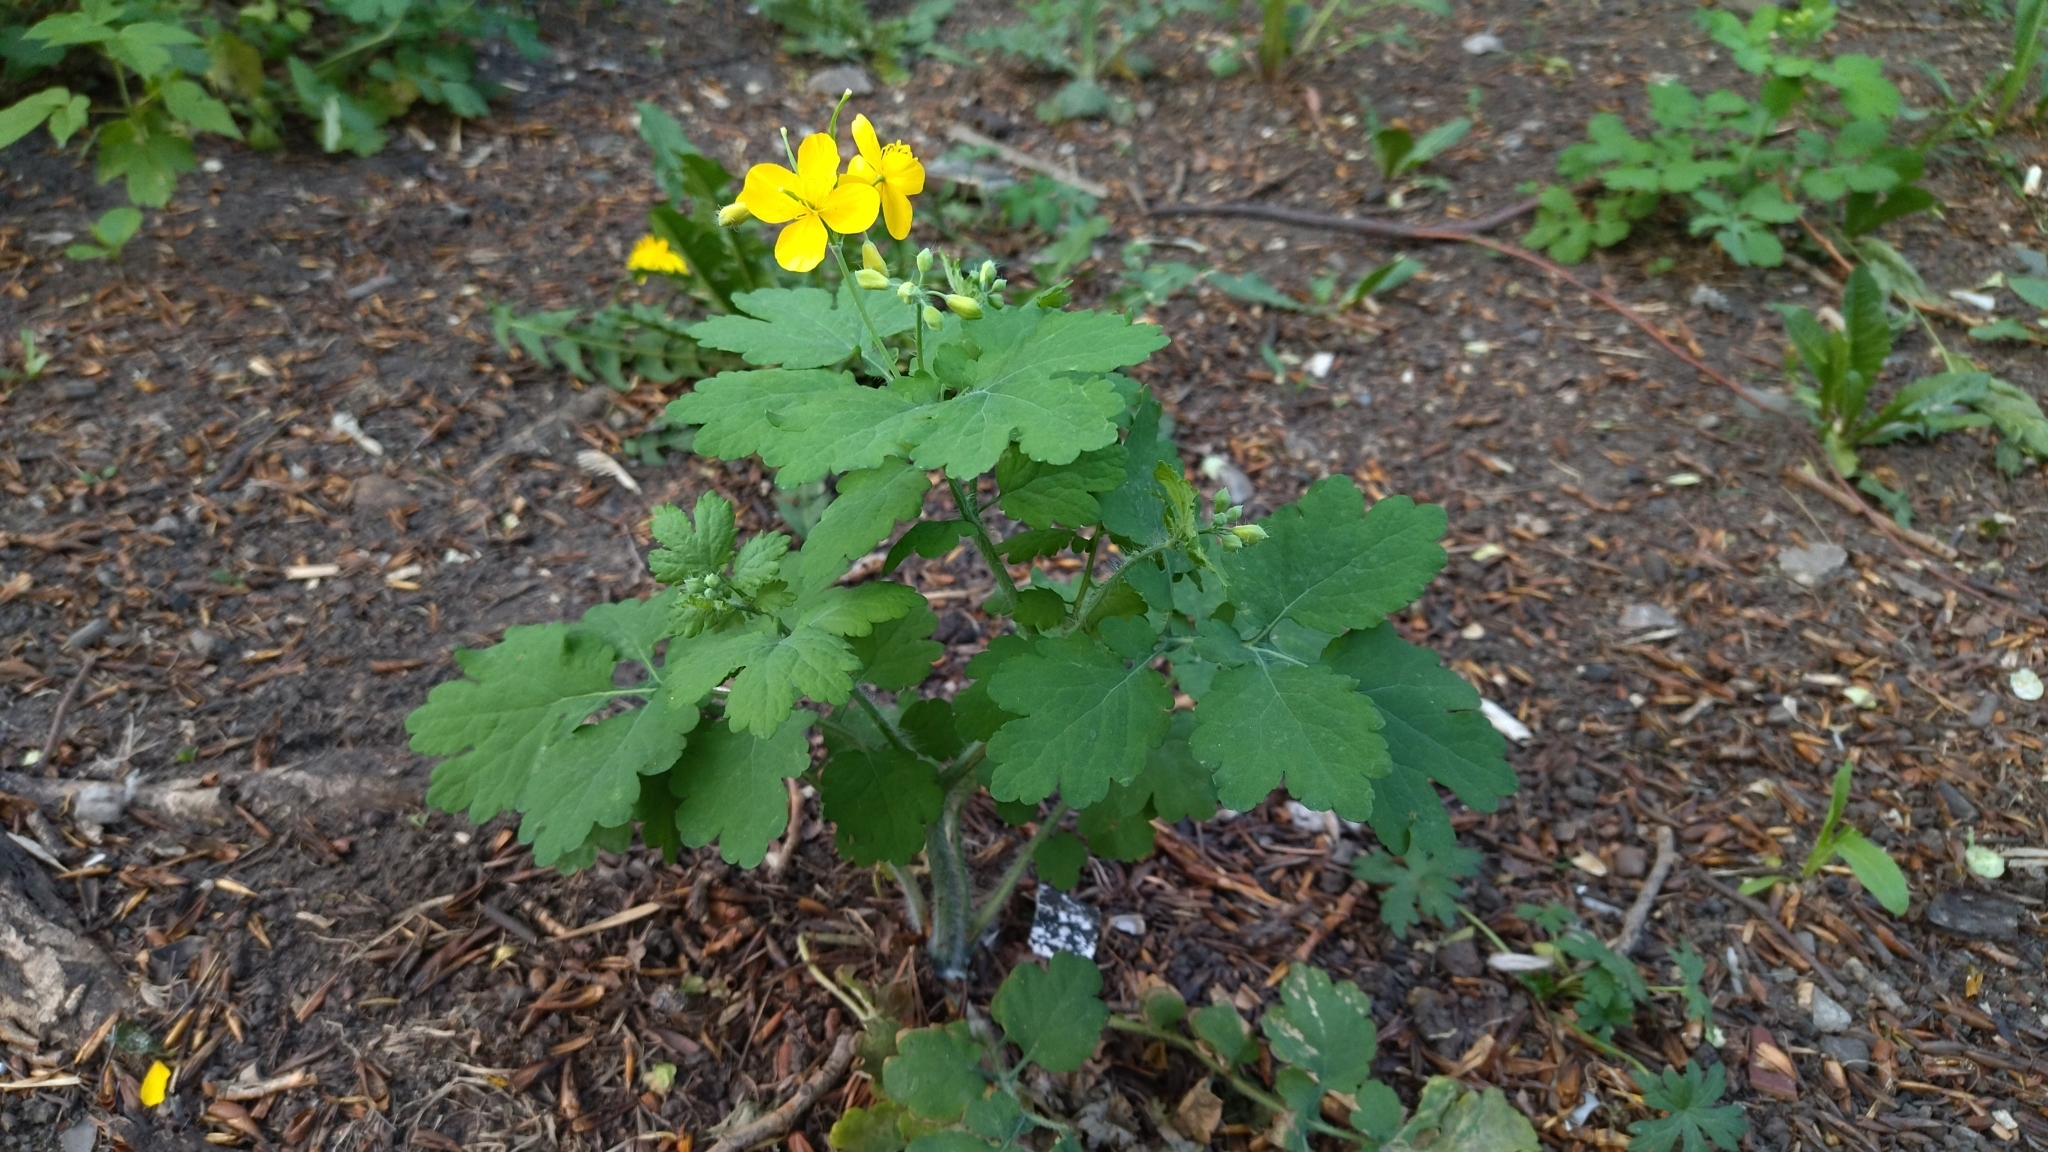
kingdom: Plantae
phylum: Tracheophyta
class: Magnoliopsida
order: Ranunculales
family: Papaveraceae
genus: Chelidonium
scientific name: Chelidonium majus
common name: Greater celandine
